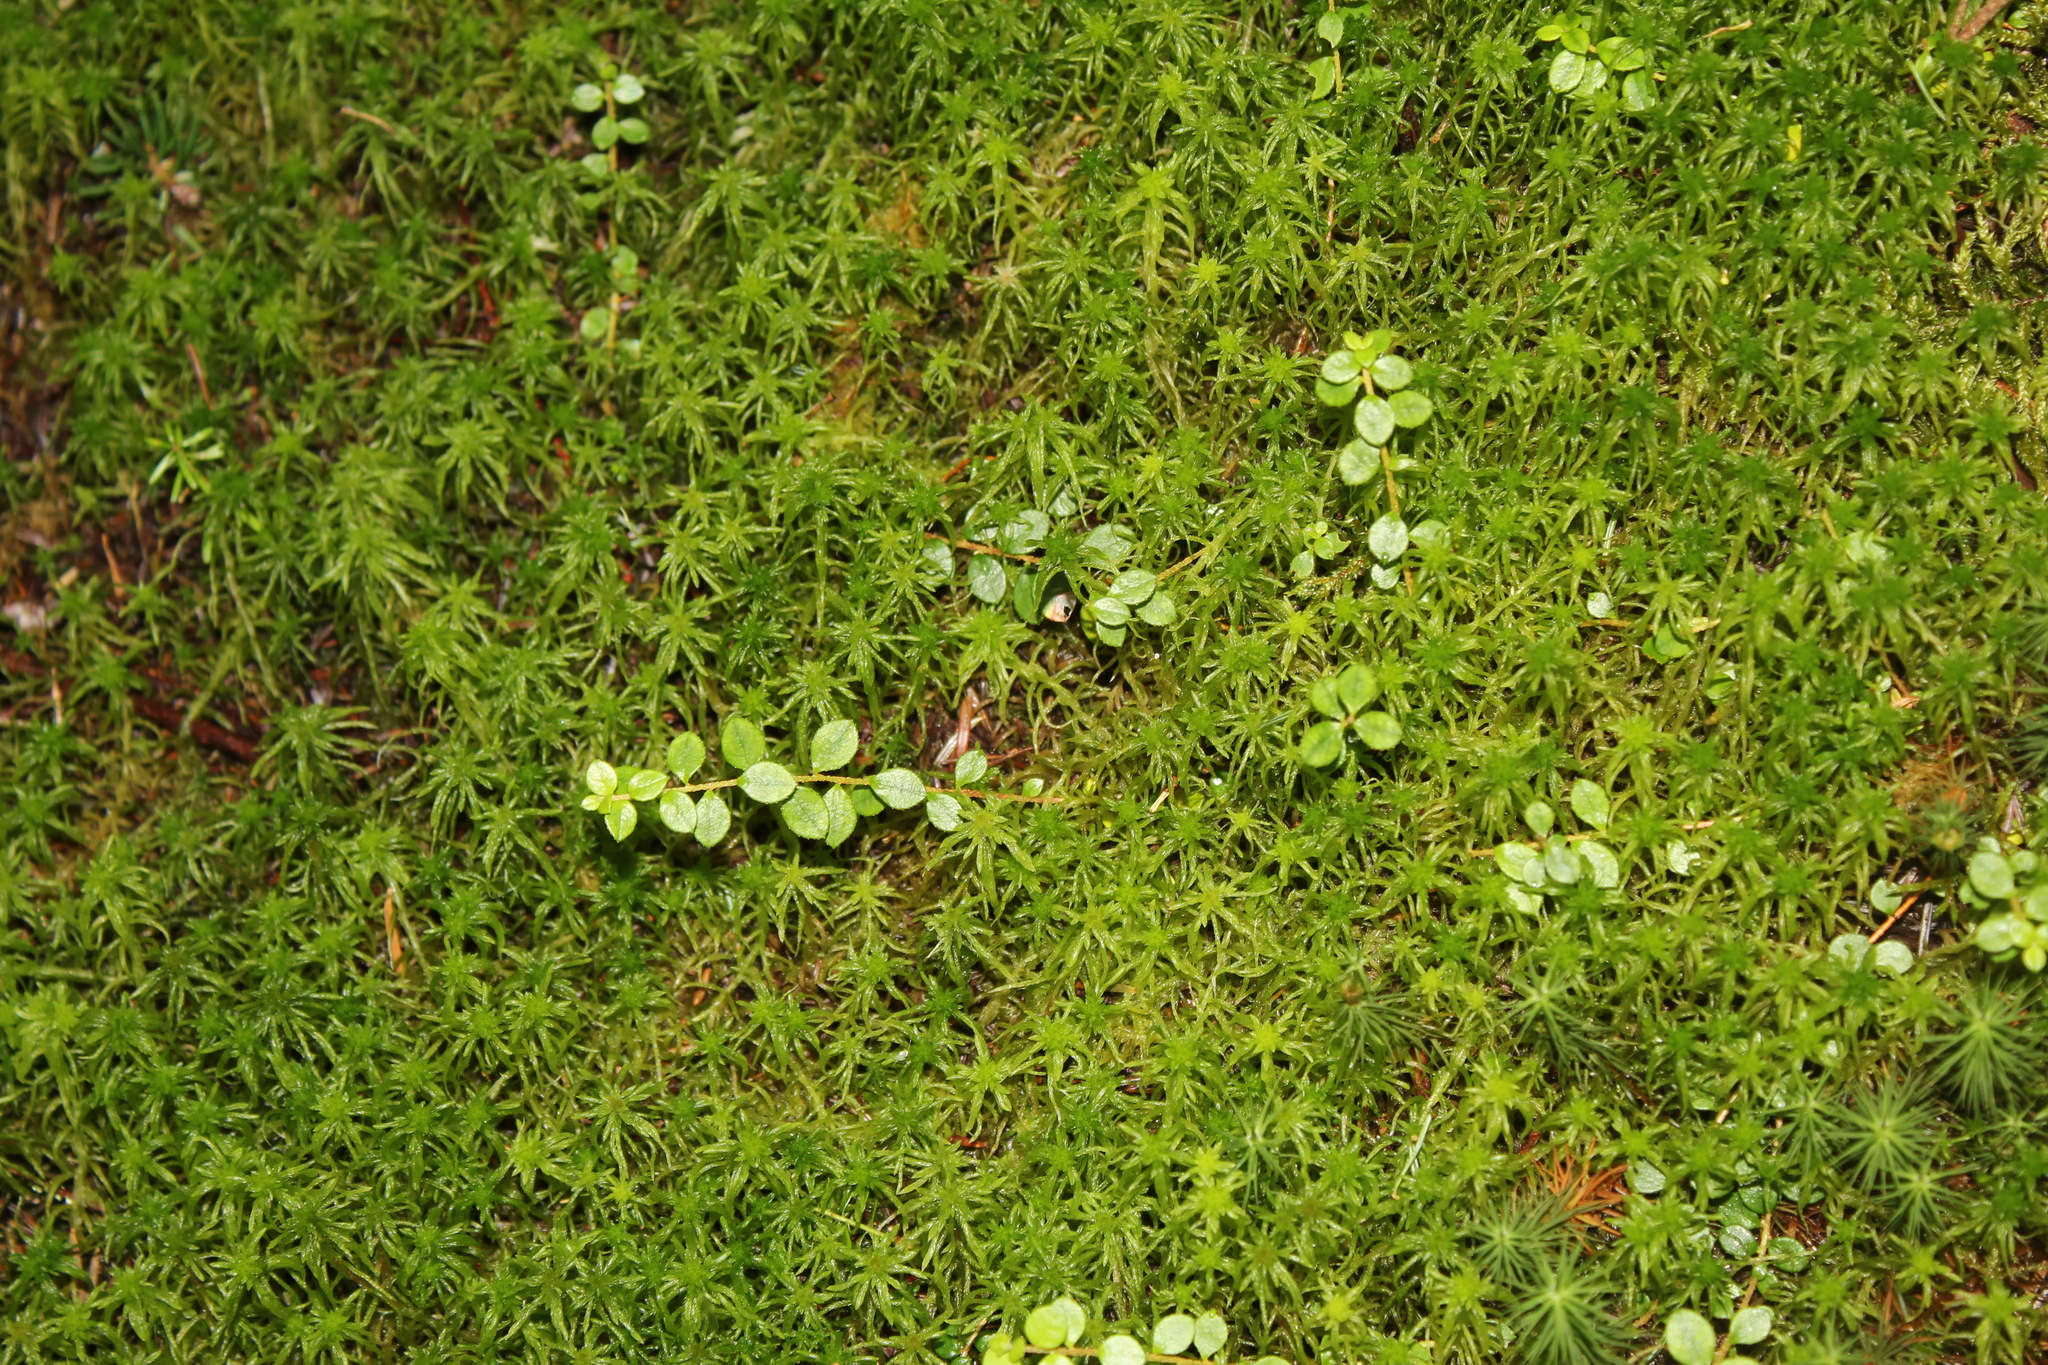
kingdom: Plantae
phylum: Tracheophyta
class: Magnoliopsida
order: Ericales
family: Ericaceae
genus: Gaultheria
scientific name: Gaultheria hispidula
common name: Cancer wintergreen
